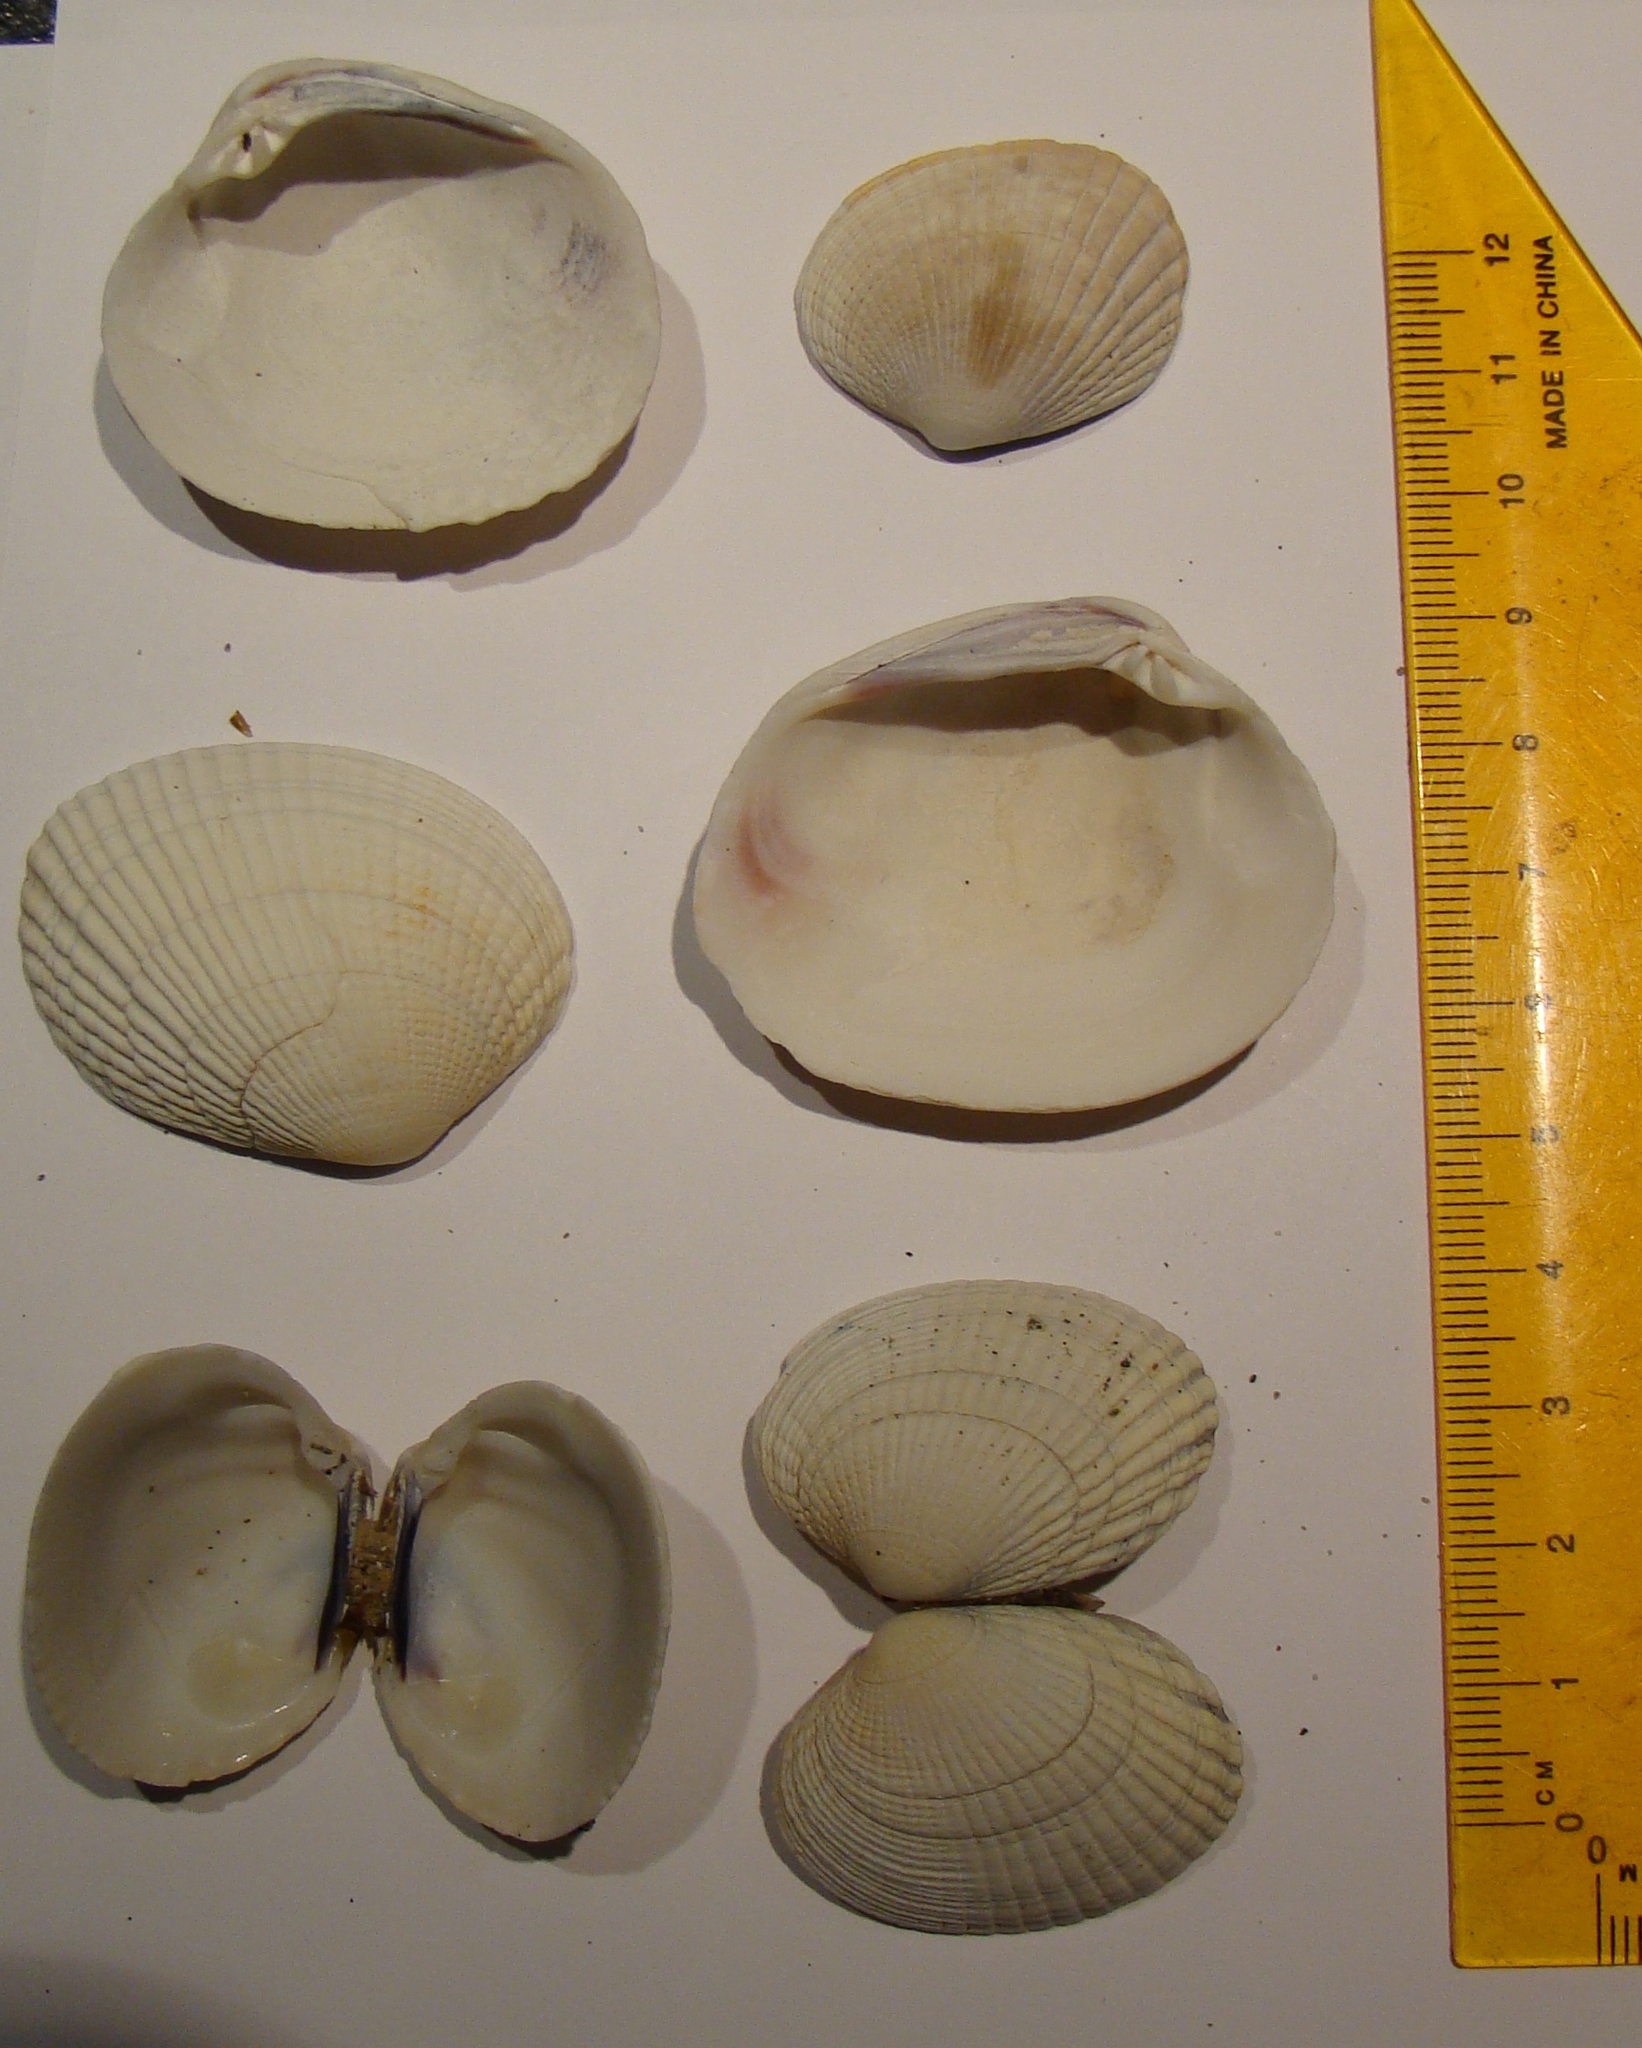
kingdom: Animalia
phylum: Mollusca
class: Bivalvia
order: Venerida
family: Veneridae
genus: Leukoma
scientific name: Leukoma crassicosta
